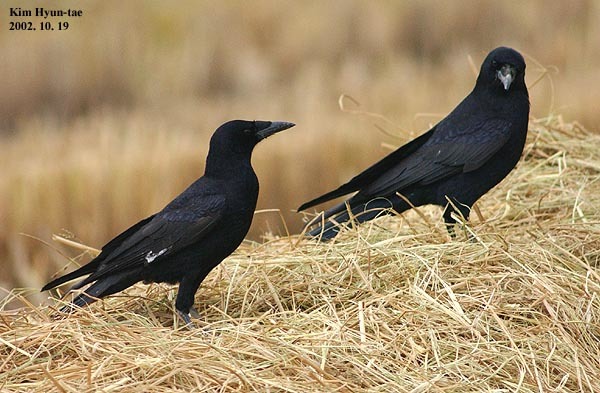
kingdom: Animalia
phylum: Chordata
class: Aves
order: Passeriformes
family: Corvidae
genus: Corvus
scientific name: Corvus corone
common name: Carrion crow
